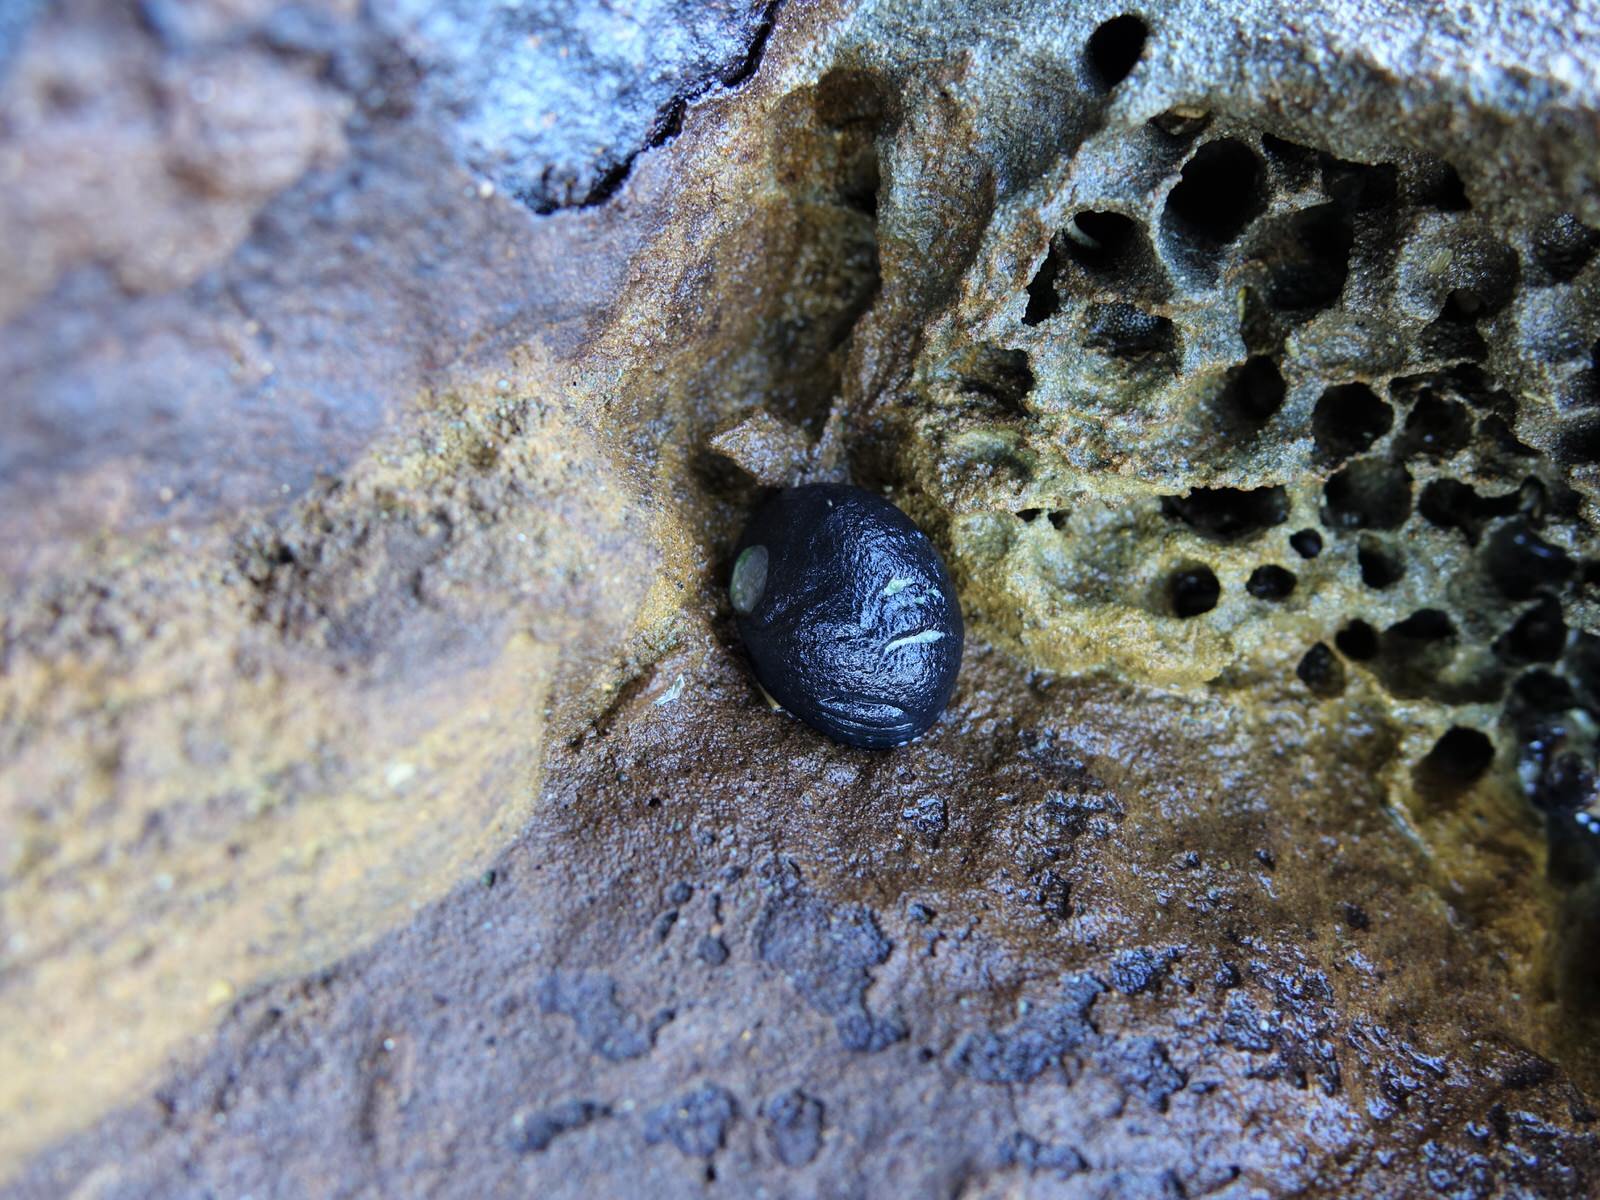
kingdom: Animalia
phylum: Mollusca
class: Gastropoda
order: Cycloneritida
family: Neritidae
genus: Nerita
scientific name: Nerita melanotragus
